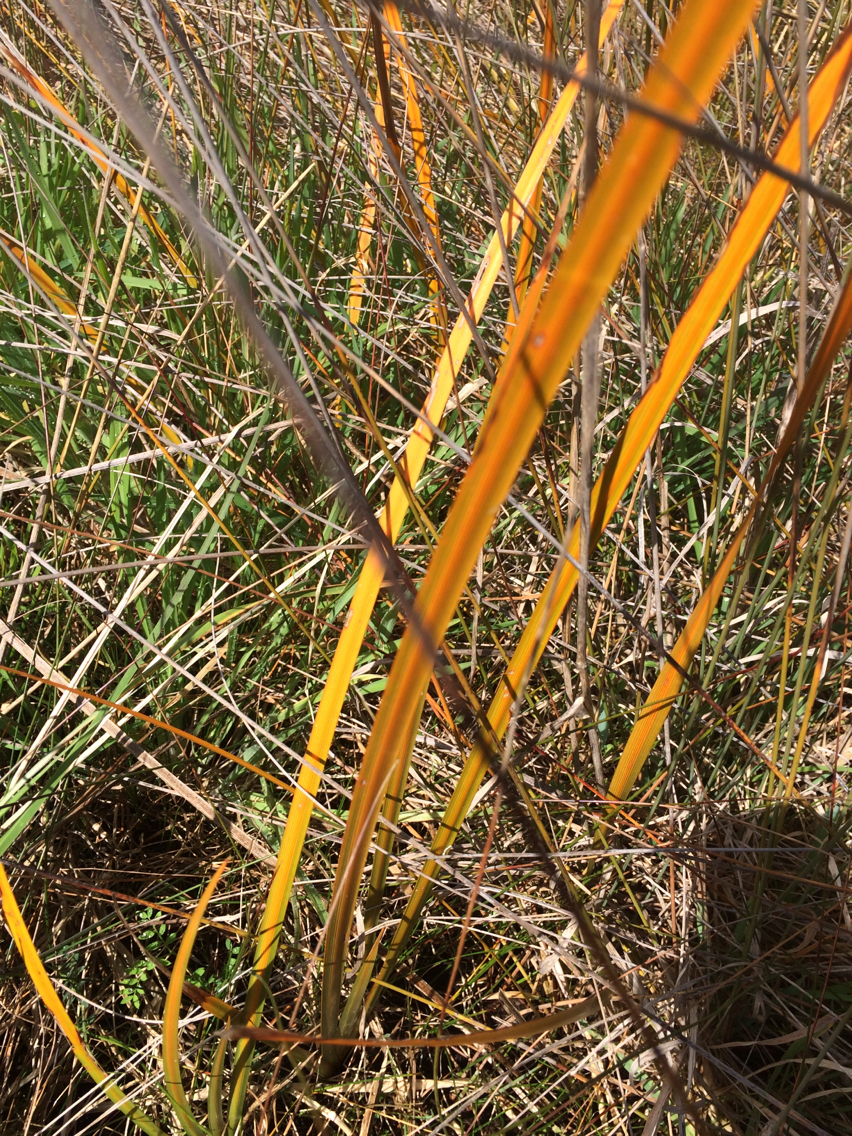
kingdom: Plantae
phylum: Tracheophyta
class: Liliopsida
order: Asparagales
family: Iridaceae
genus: Libertia
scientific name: Libertia peregrinans
